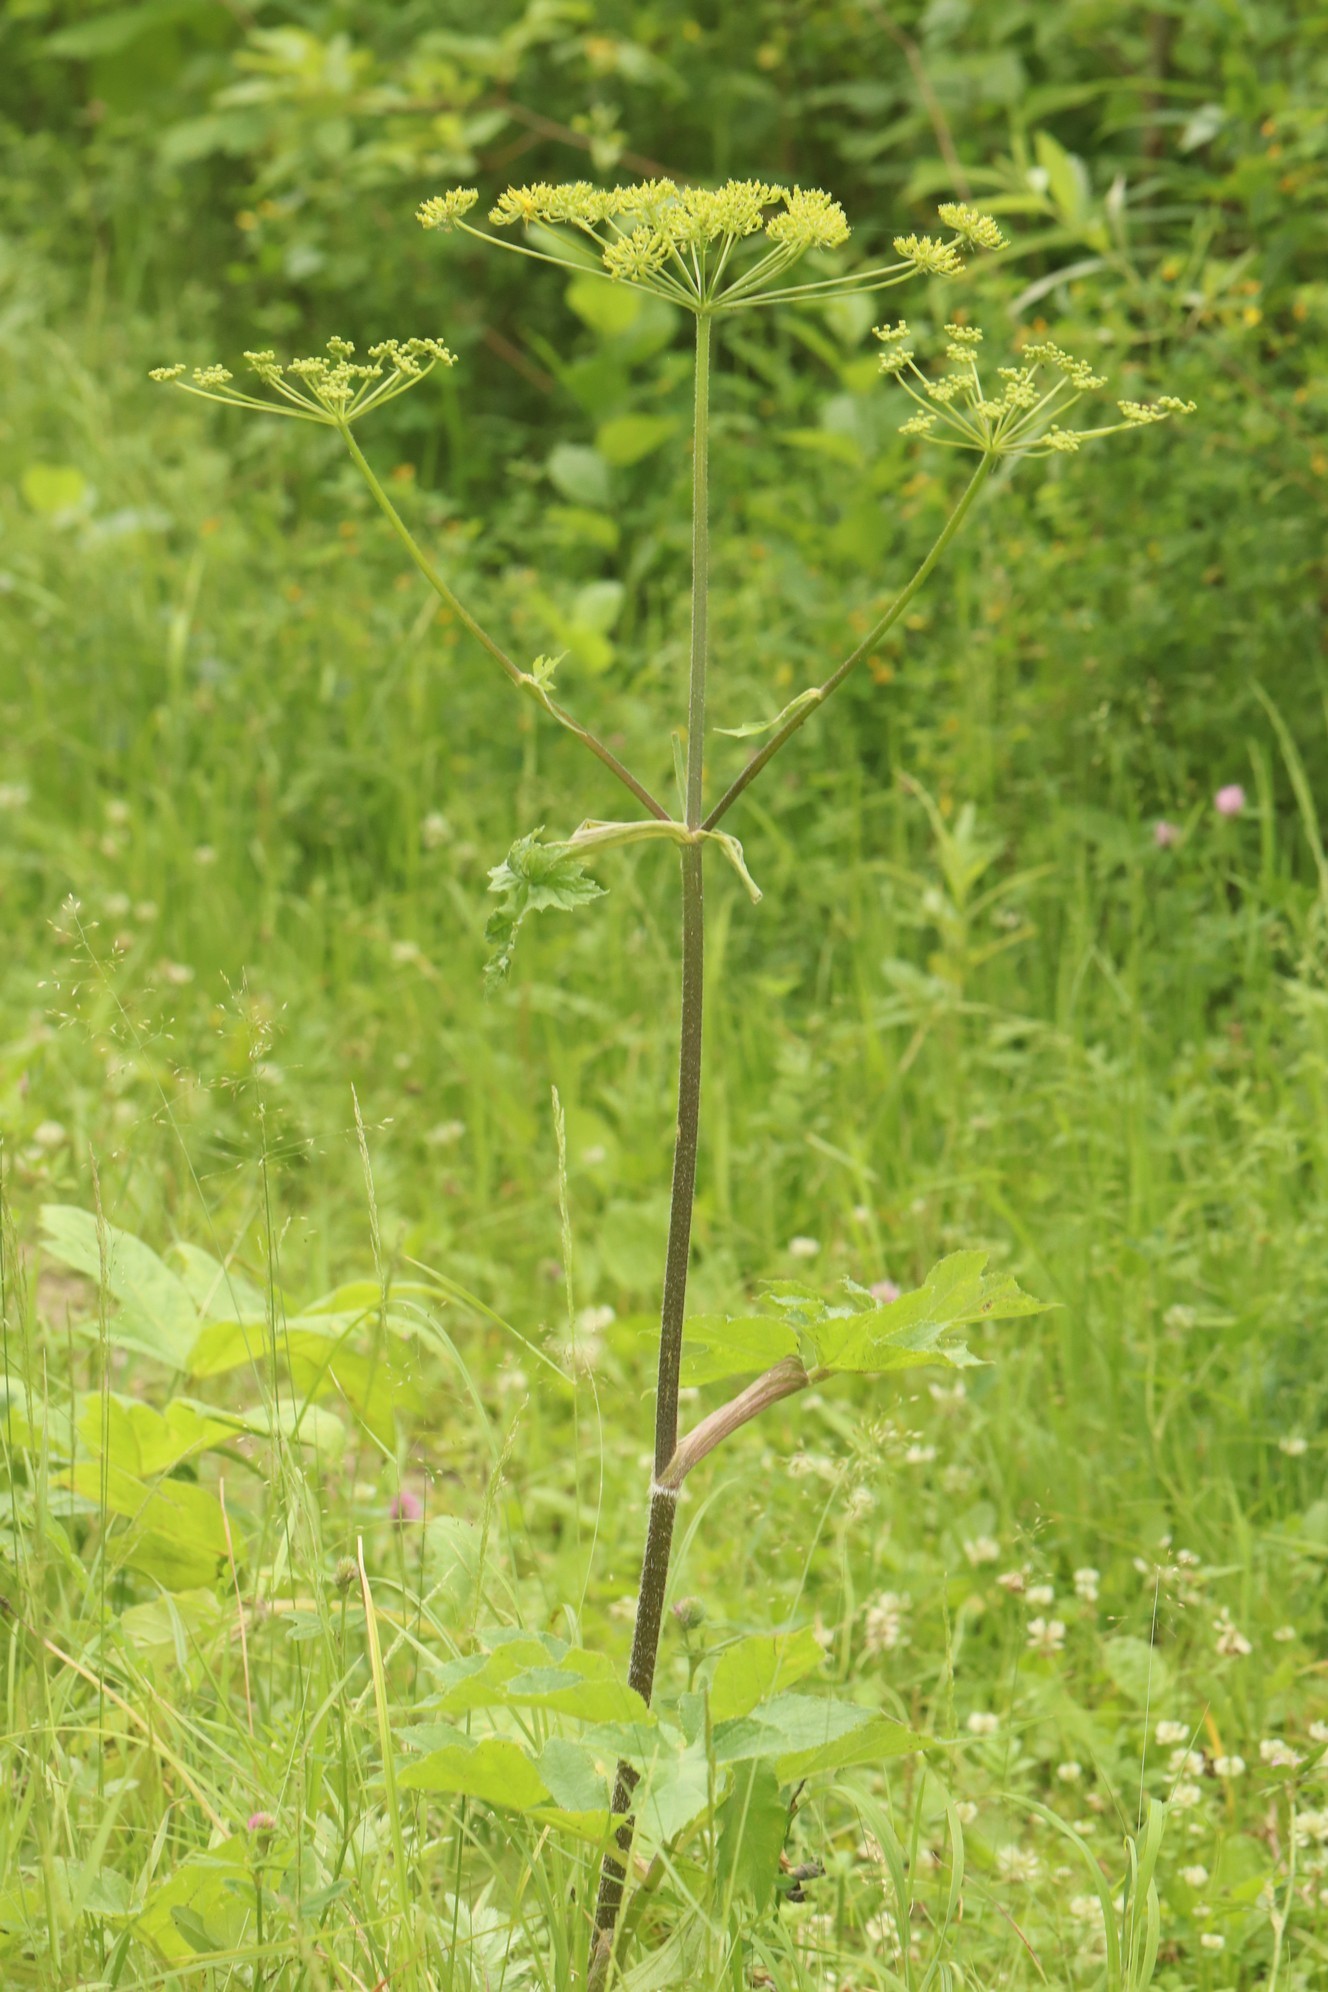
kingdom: Plantae
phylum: Tracheophyta
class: Magnoliopsida
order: Apiales
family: Apiaceae
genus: Heracleum
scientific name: Heracleum sphondylium
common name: Hogweed
